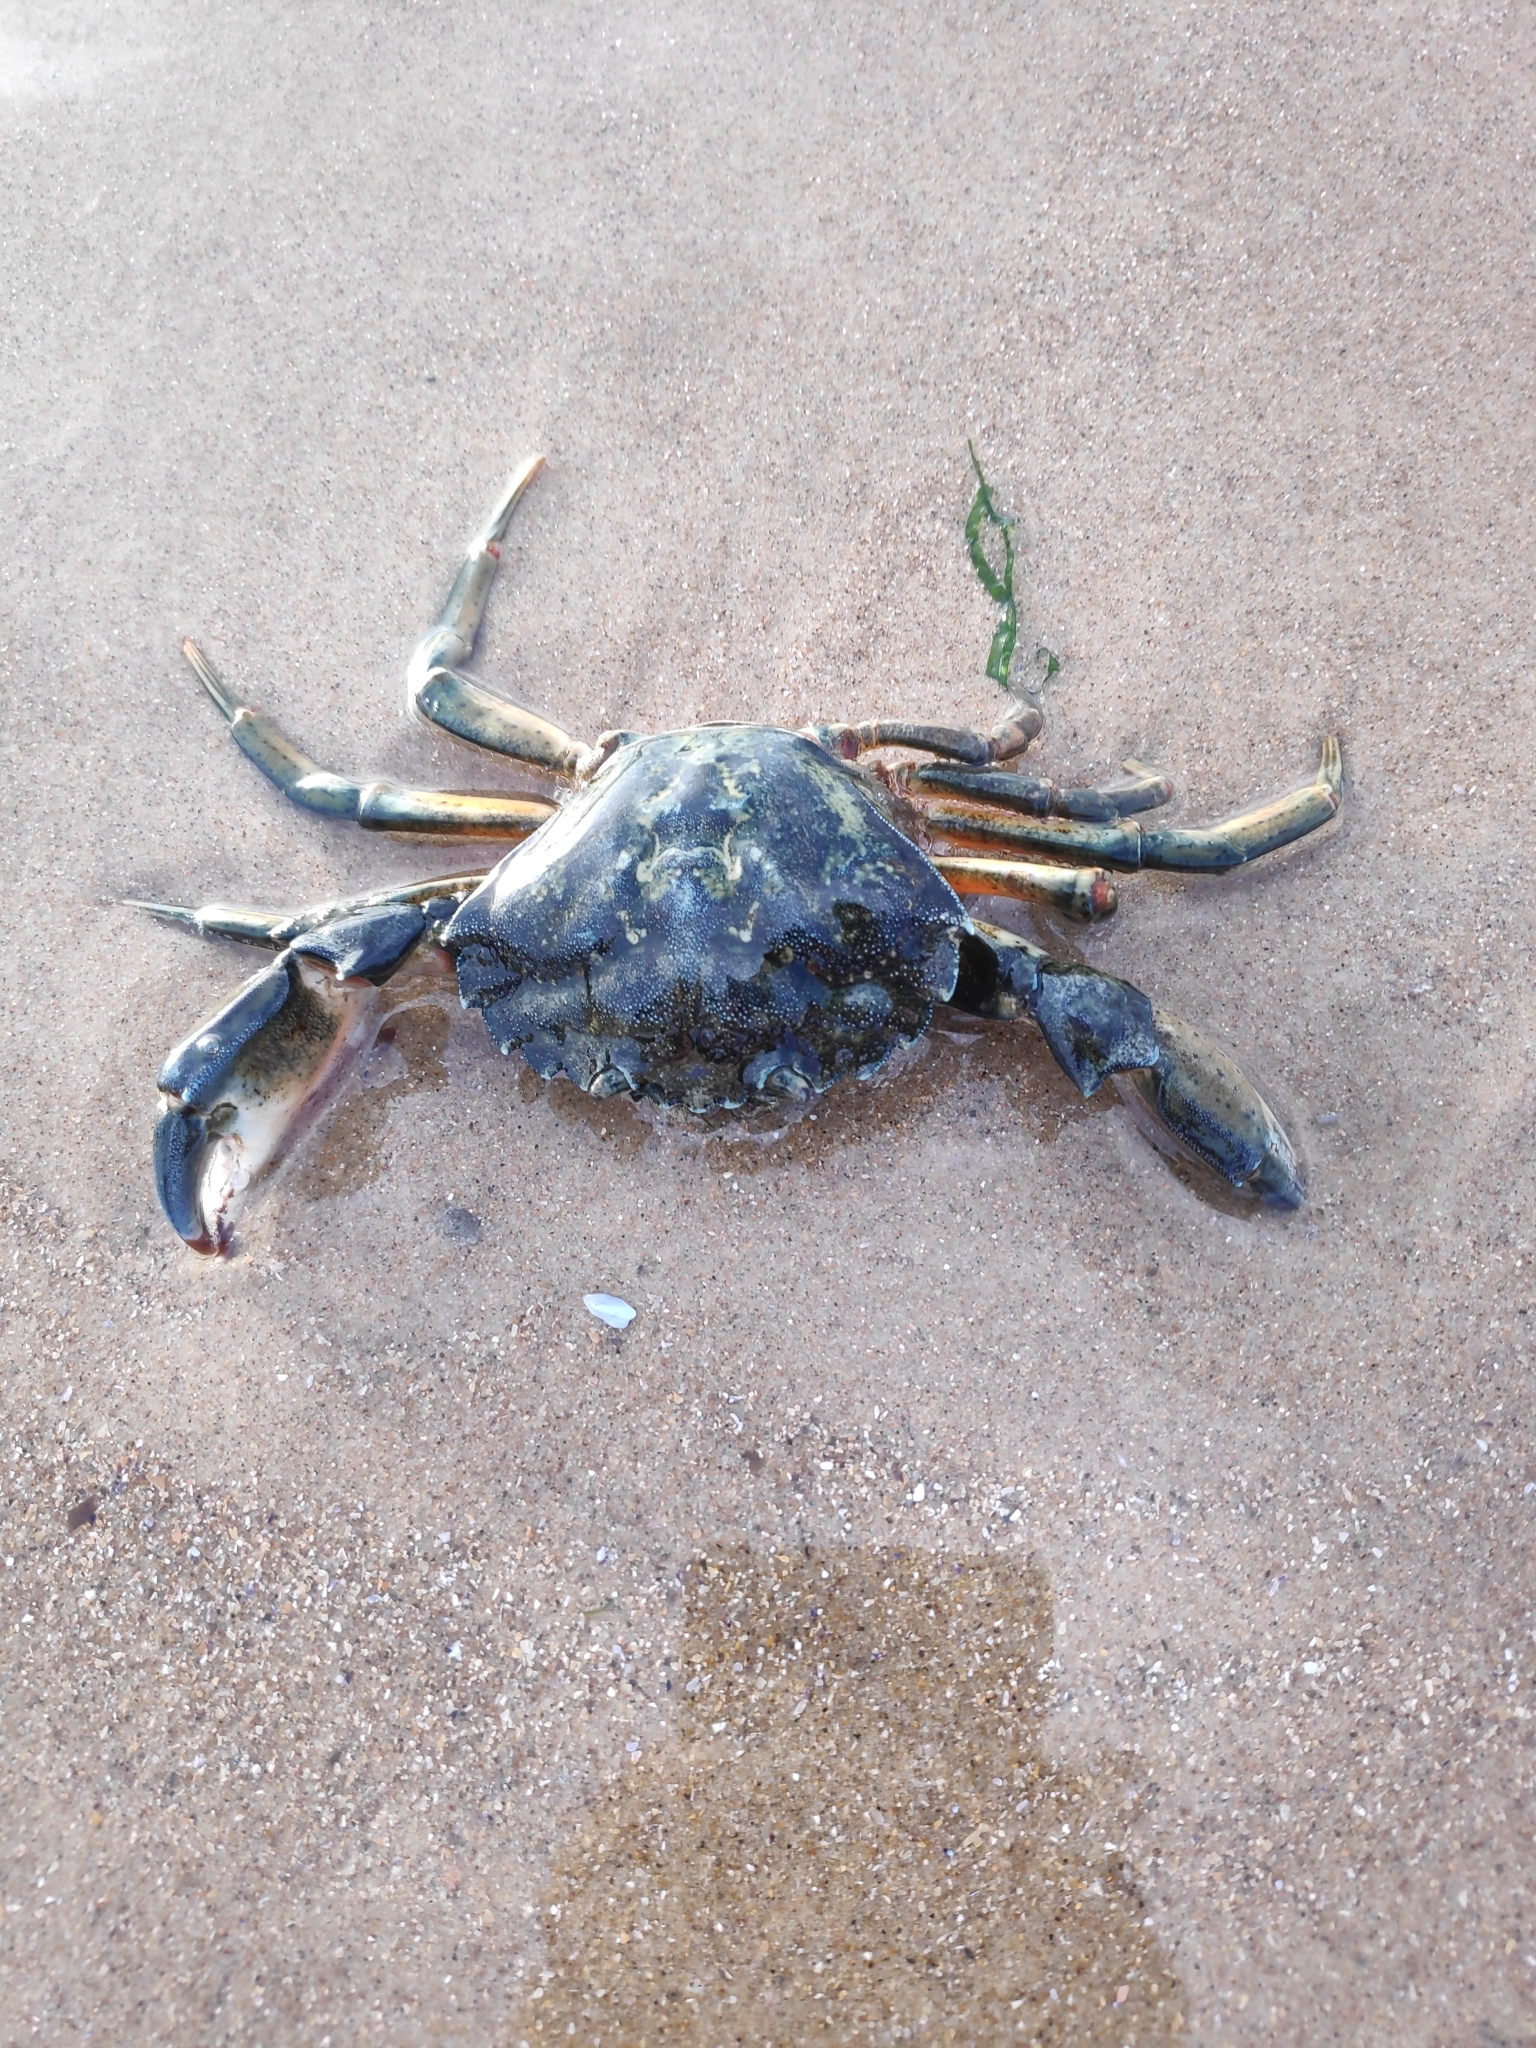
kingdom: Animalia
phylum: Arthropoda
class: Malacostraca
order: Decapoda
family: Carcinidae
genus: Carcinus
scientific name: Carcinus maenas
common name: European green crab
